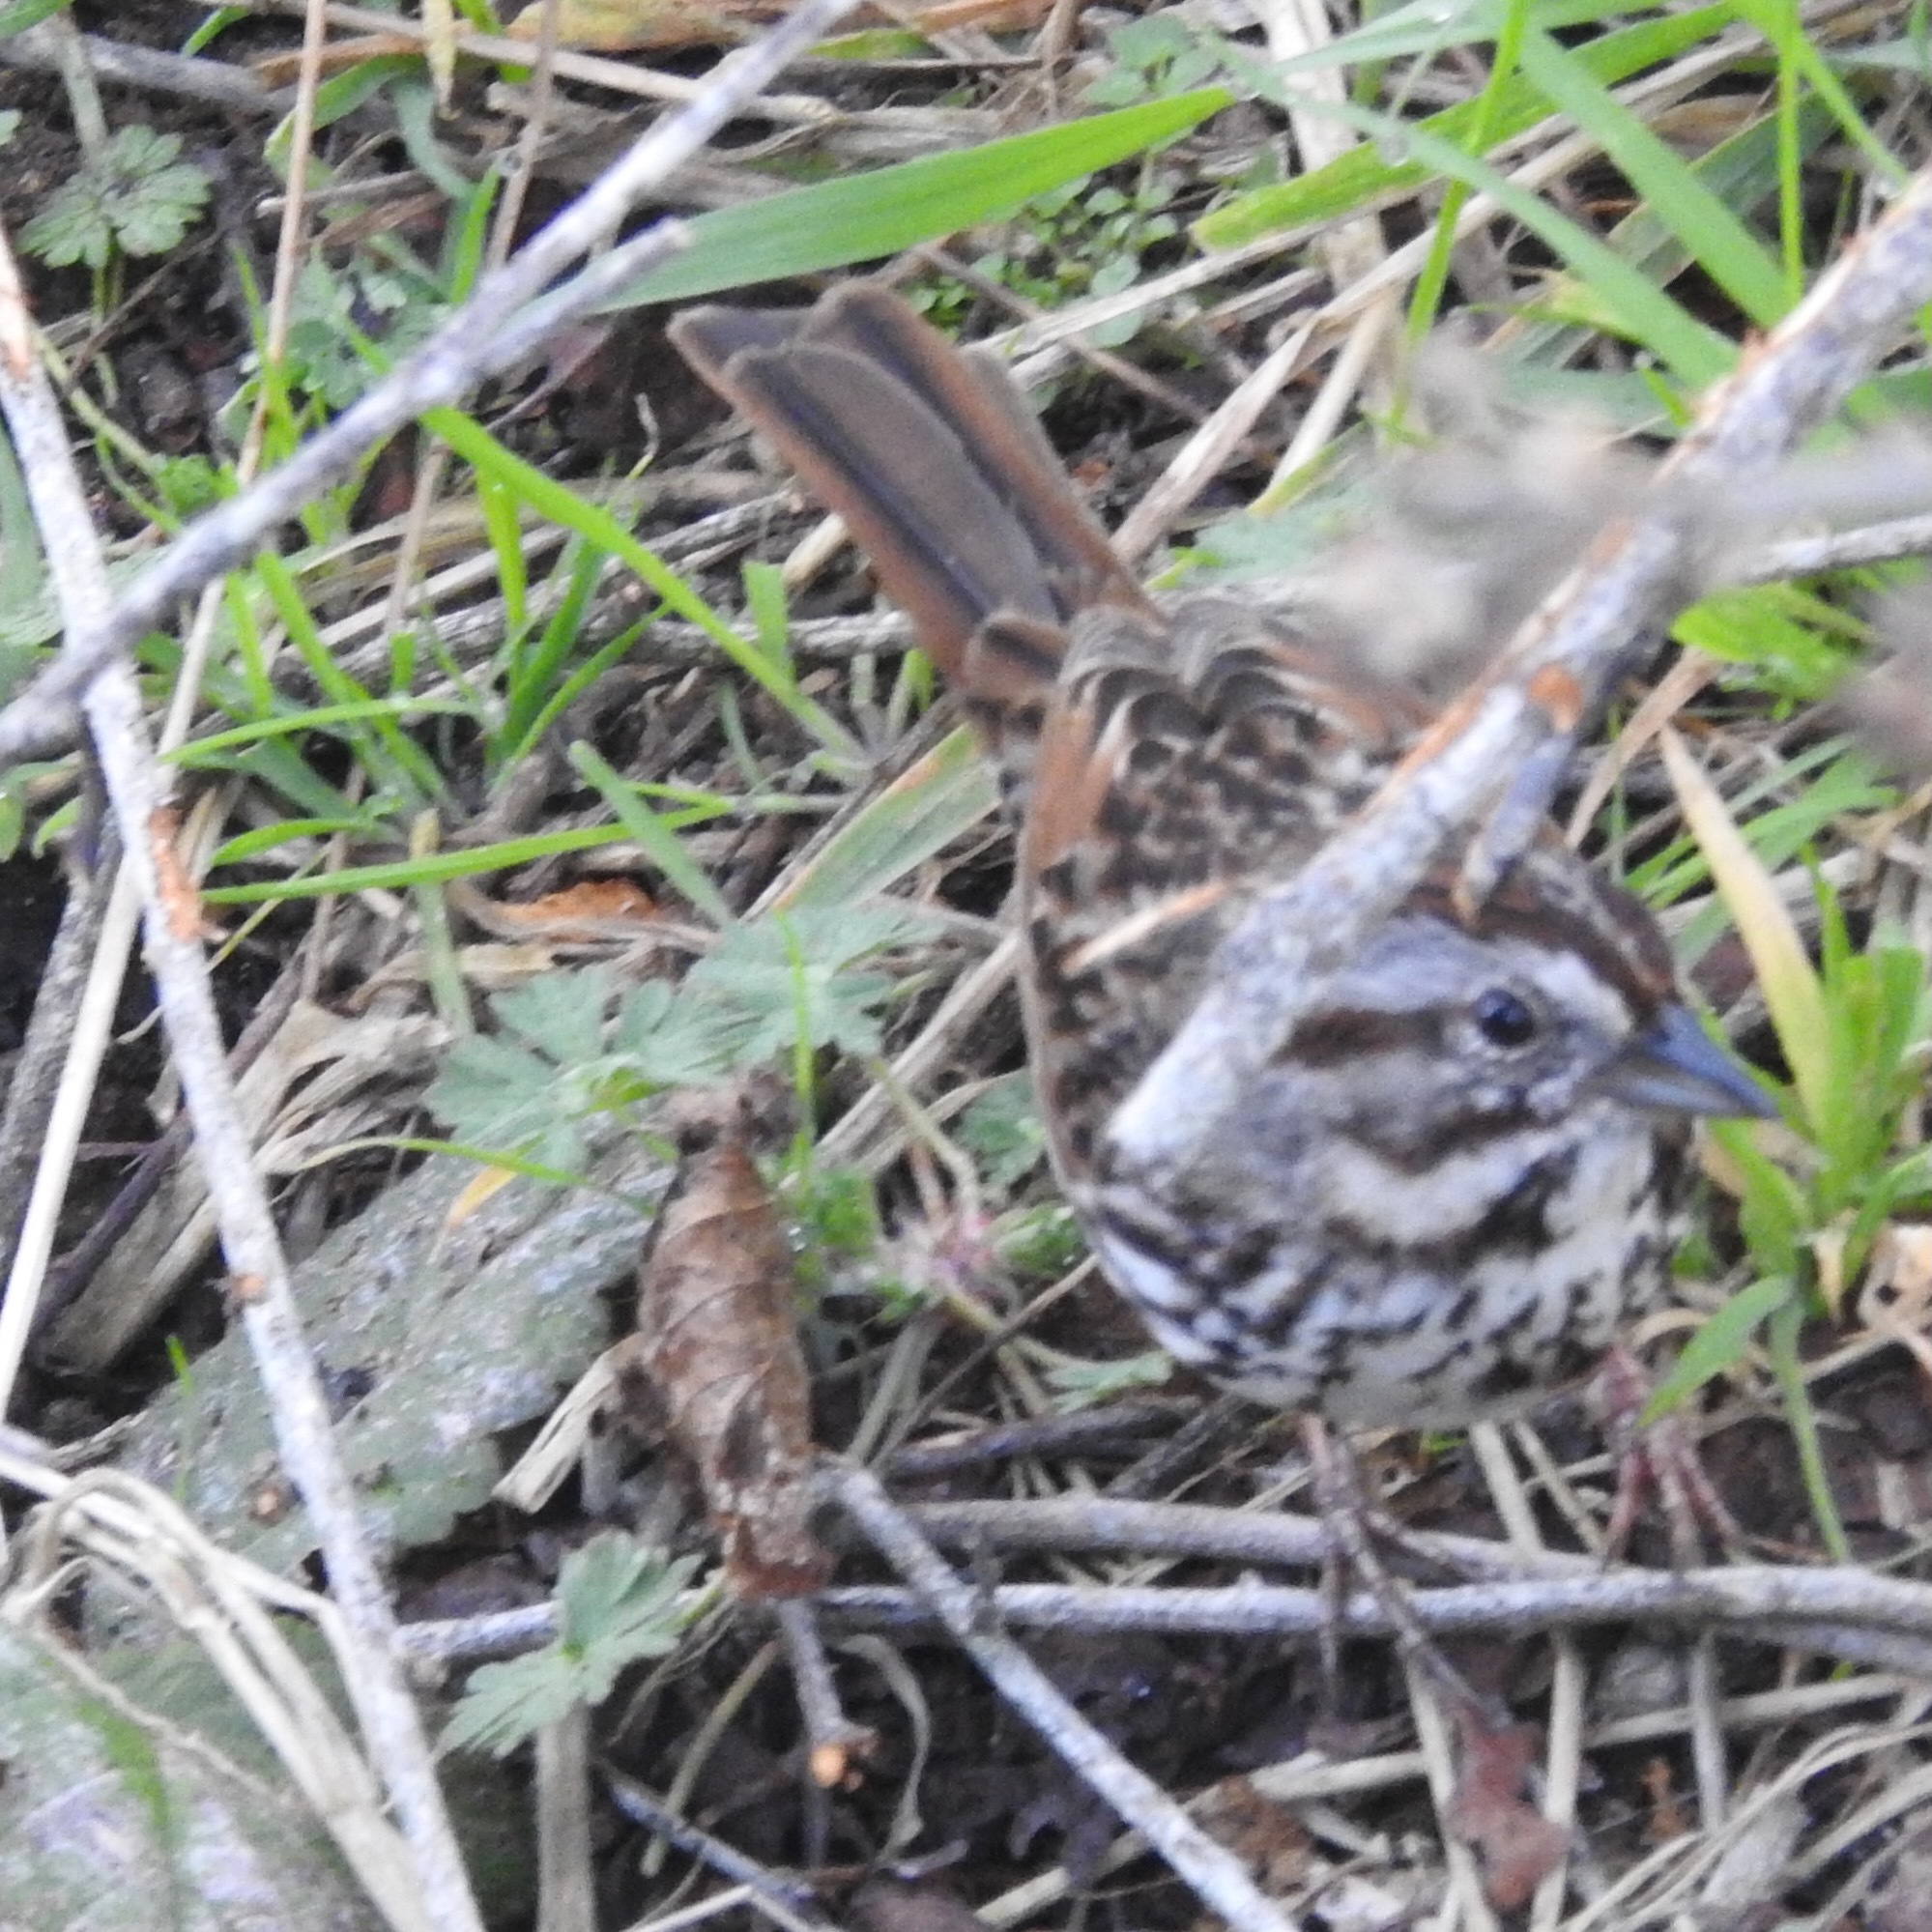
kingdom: Animalia
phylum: Chordata
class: Aves
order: Passeriformes
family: Passerellidae
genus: Melospiza
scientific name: Melospiza melodia
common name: Song sparrow
